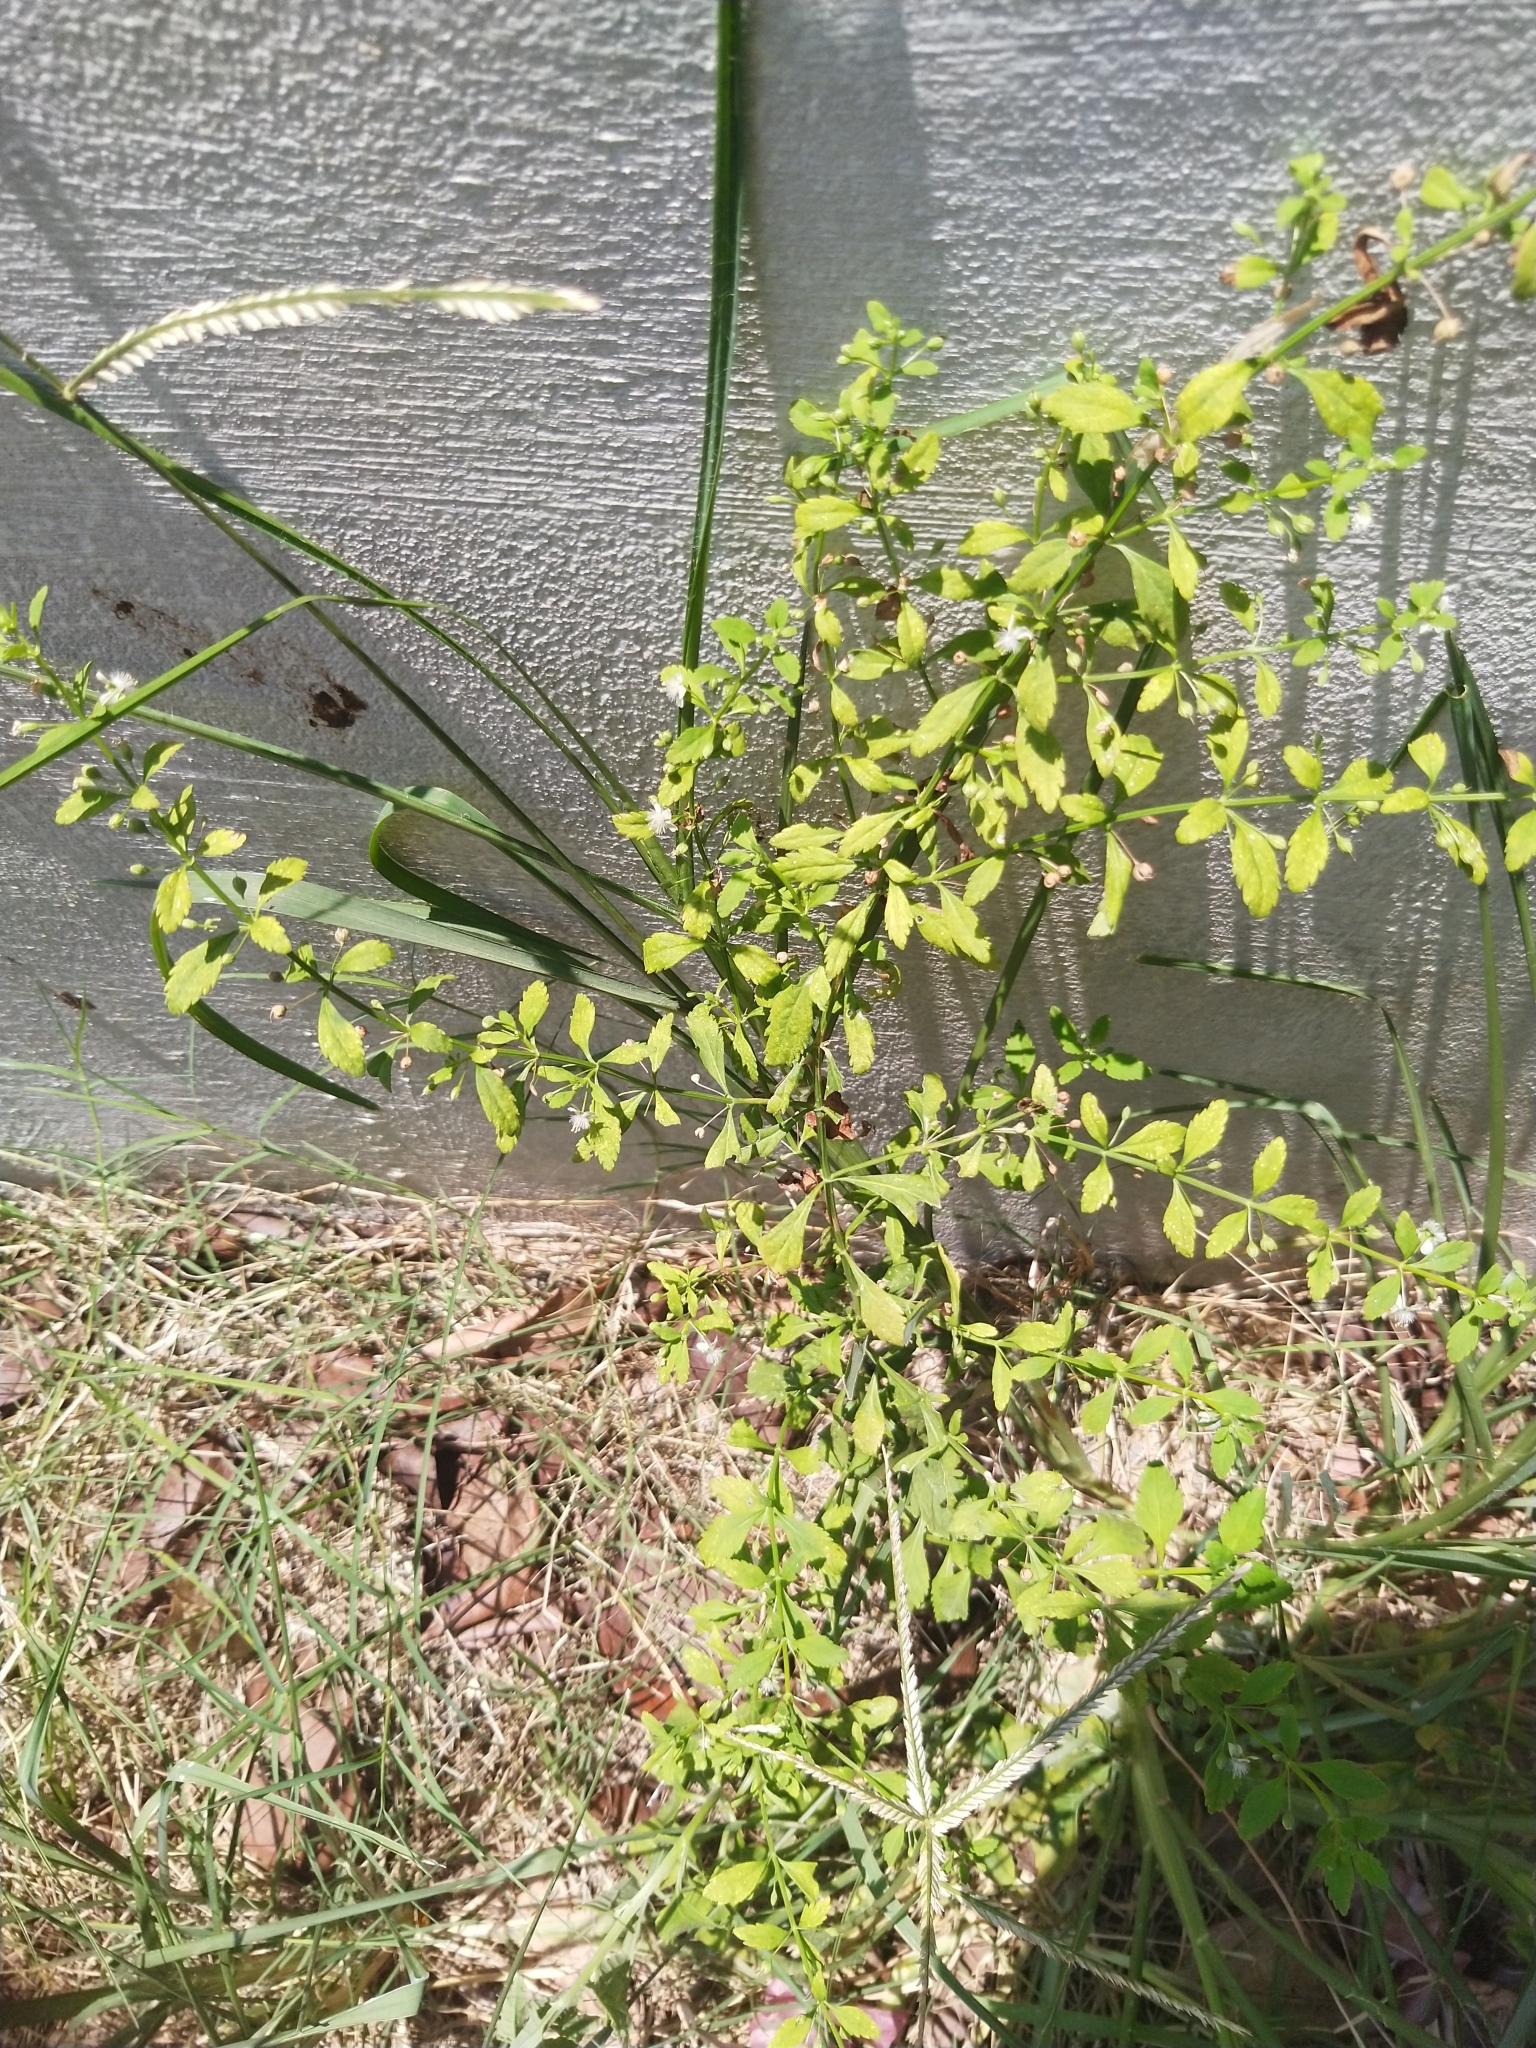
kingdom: Plantae
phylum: Tracheophyta
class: Magnoliopsida
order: Lamiales
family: Plantaginaceae
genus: Scoparia
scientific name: Scoparia dulcis
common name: Scoparia-weed
